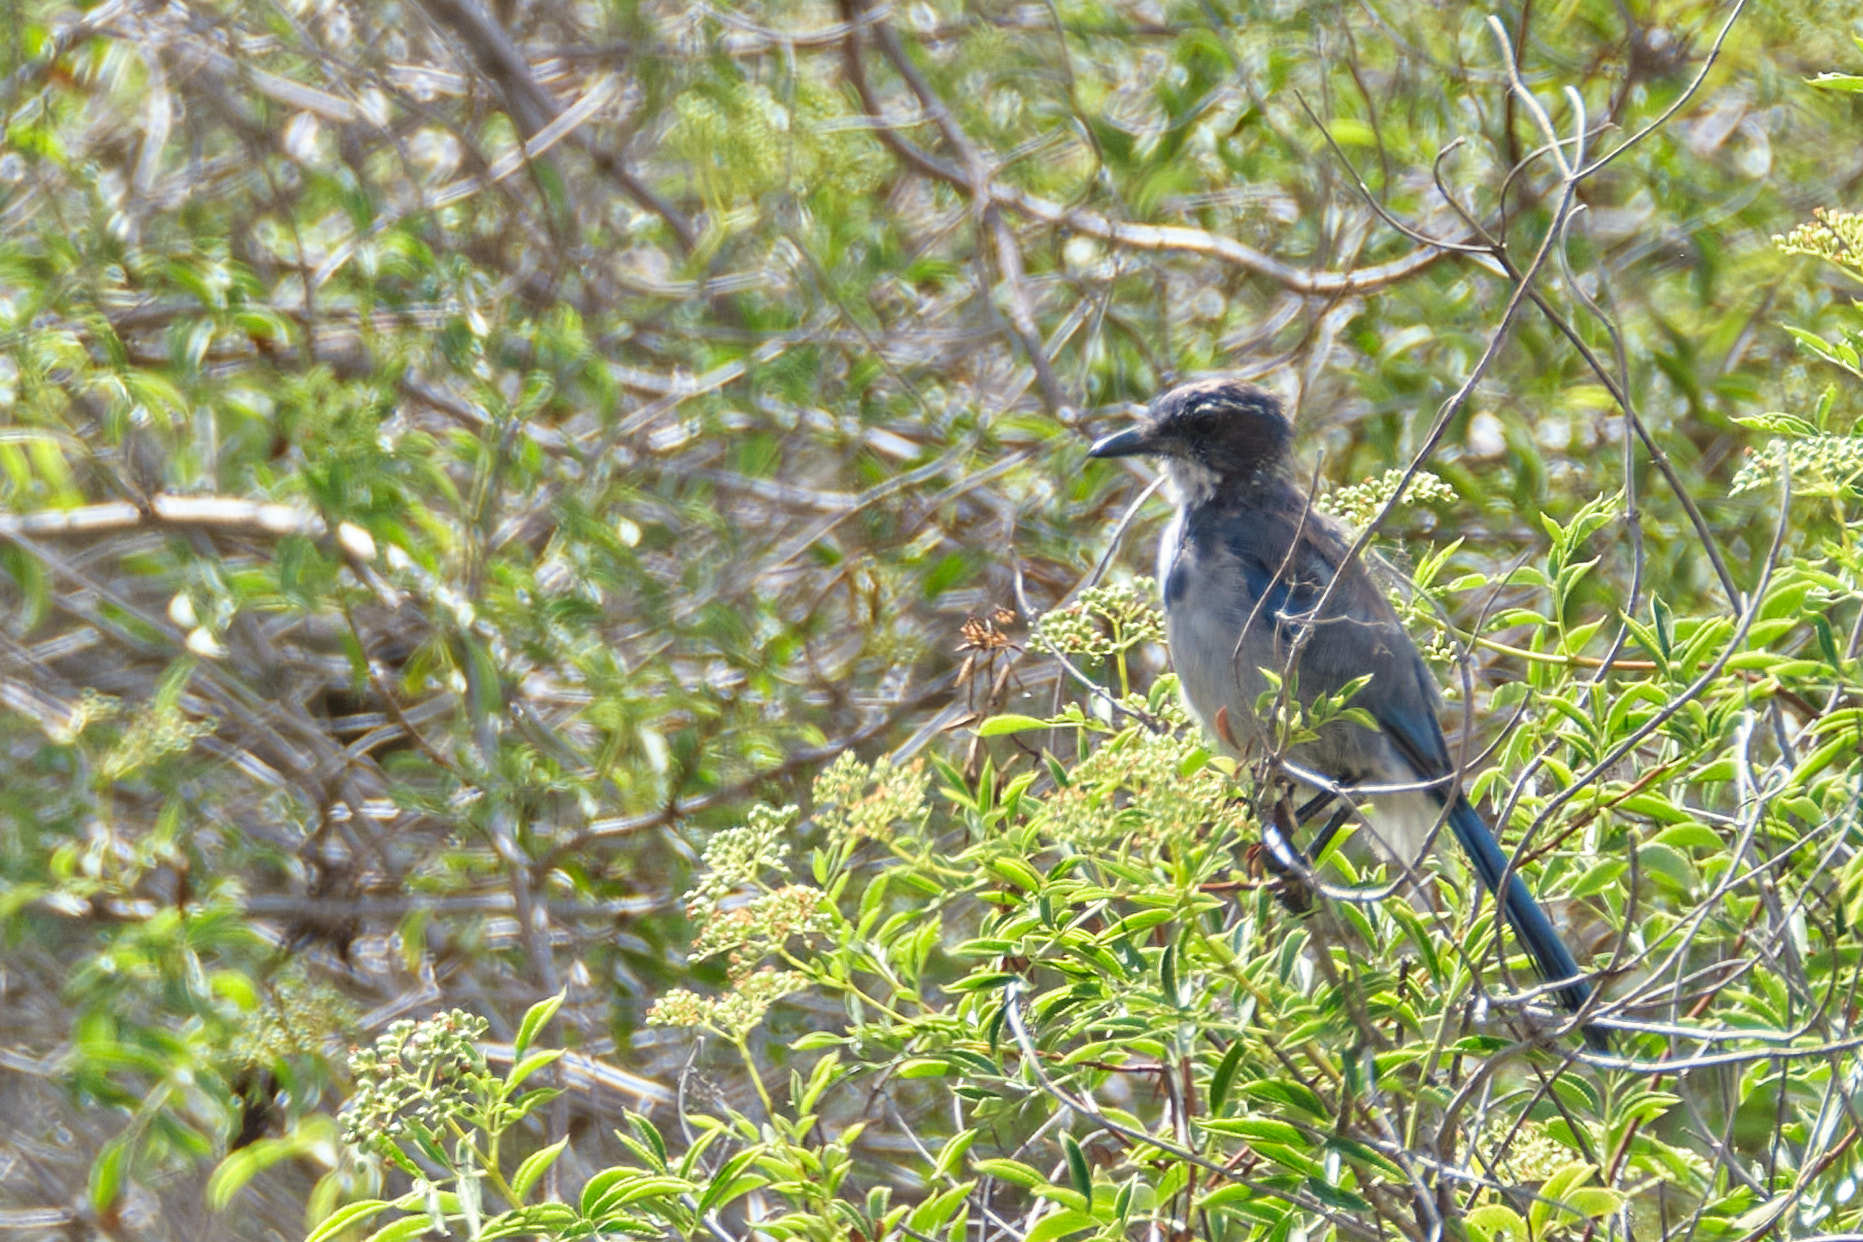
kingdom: Animalia
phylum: Chordata
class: Aves
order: Passeriformes
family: Corvidae
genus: Aphelocoma
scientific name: Aphelocoma californica
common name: California scrub-jay
